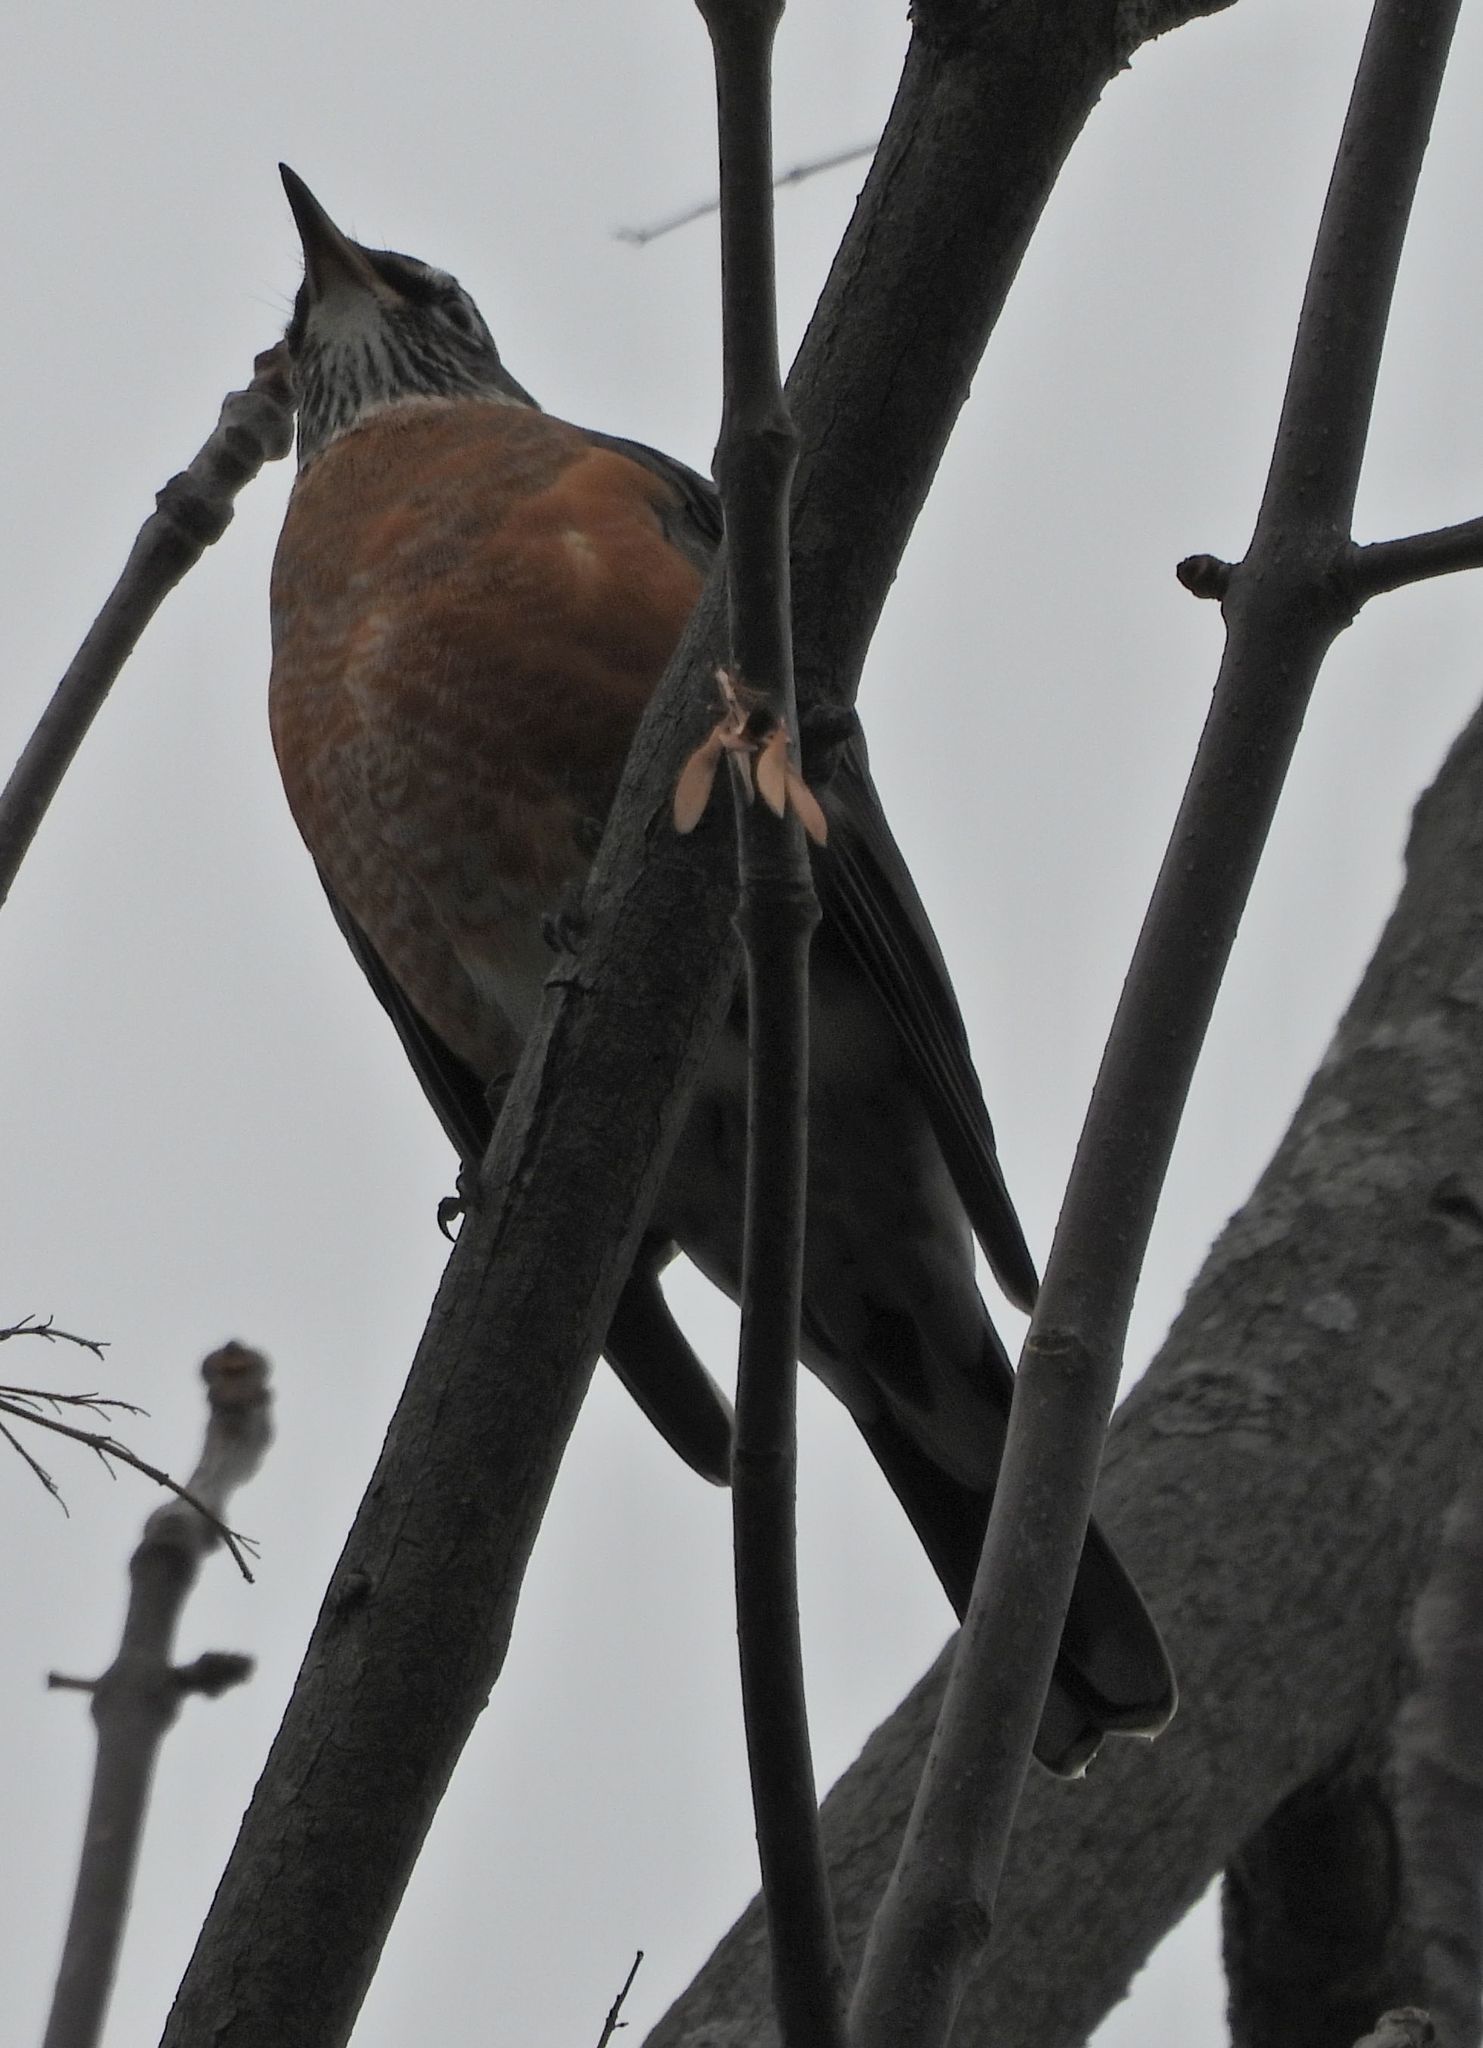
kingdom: Animalia
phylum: Chordata
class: Aves
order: Passeriformes
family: Turdidae
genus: Turdus
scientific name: Turdus migratorius
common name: American robin
